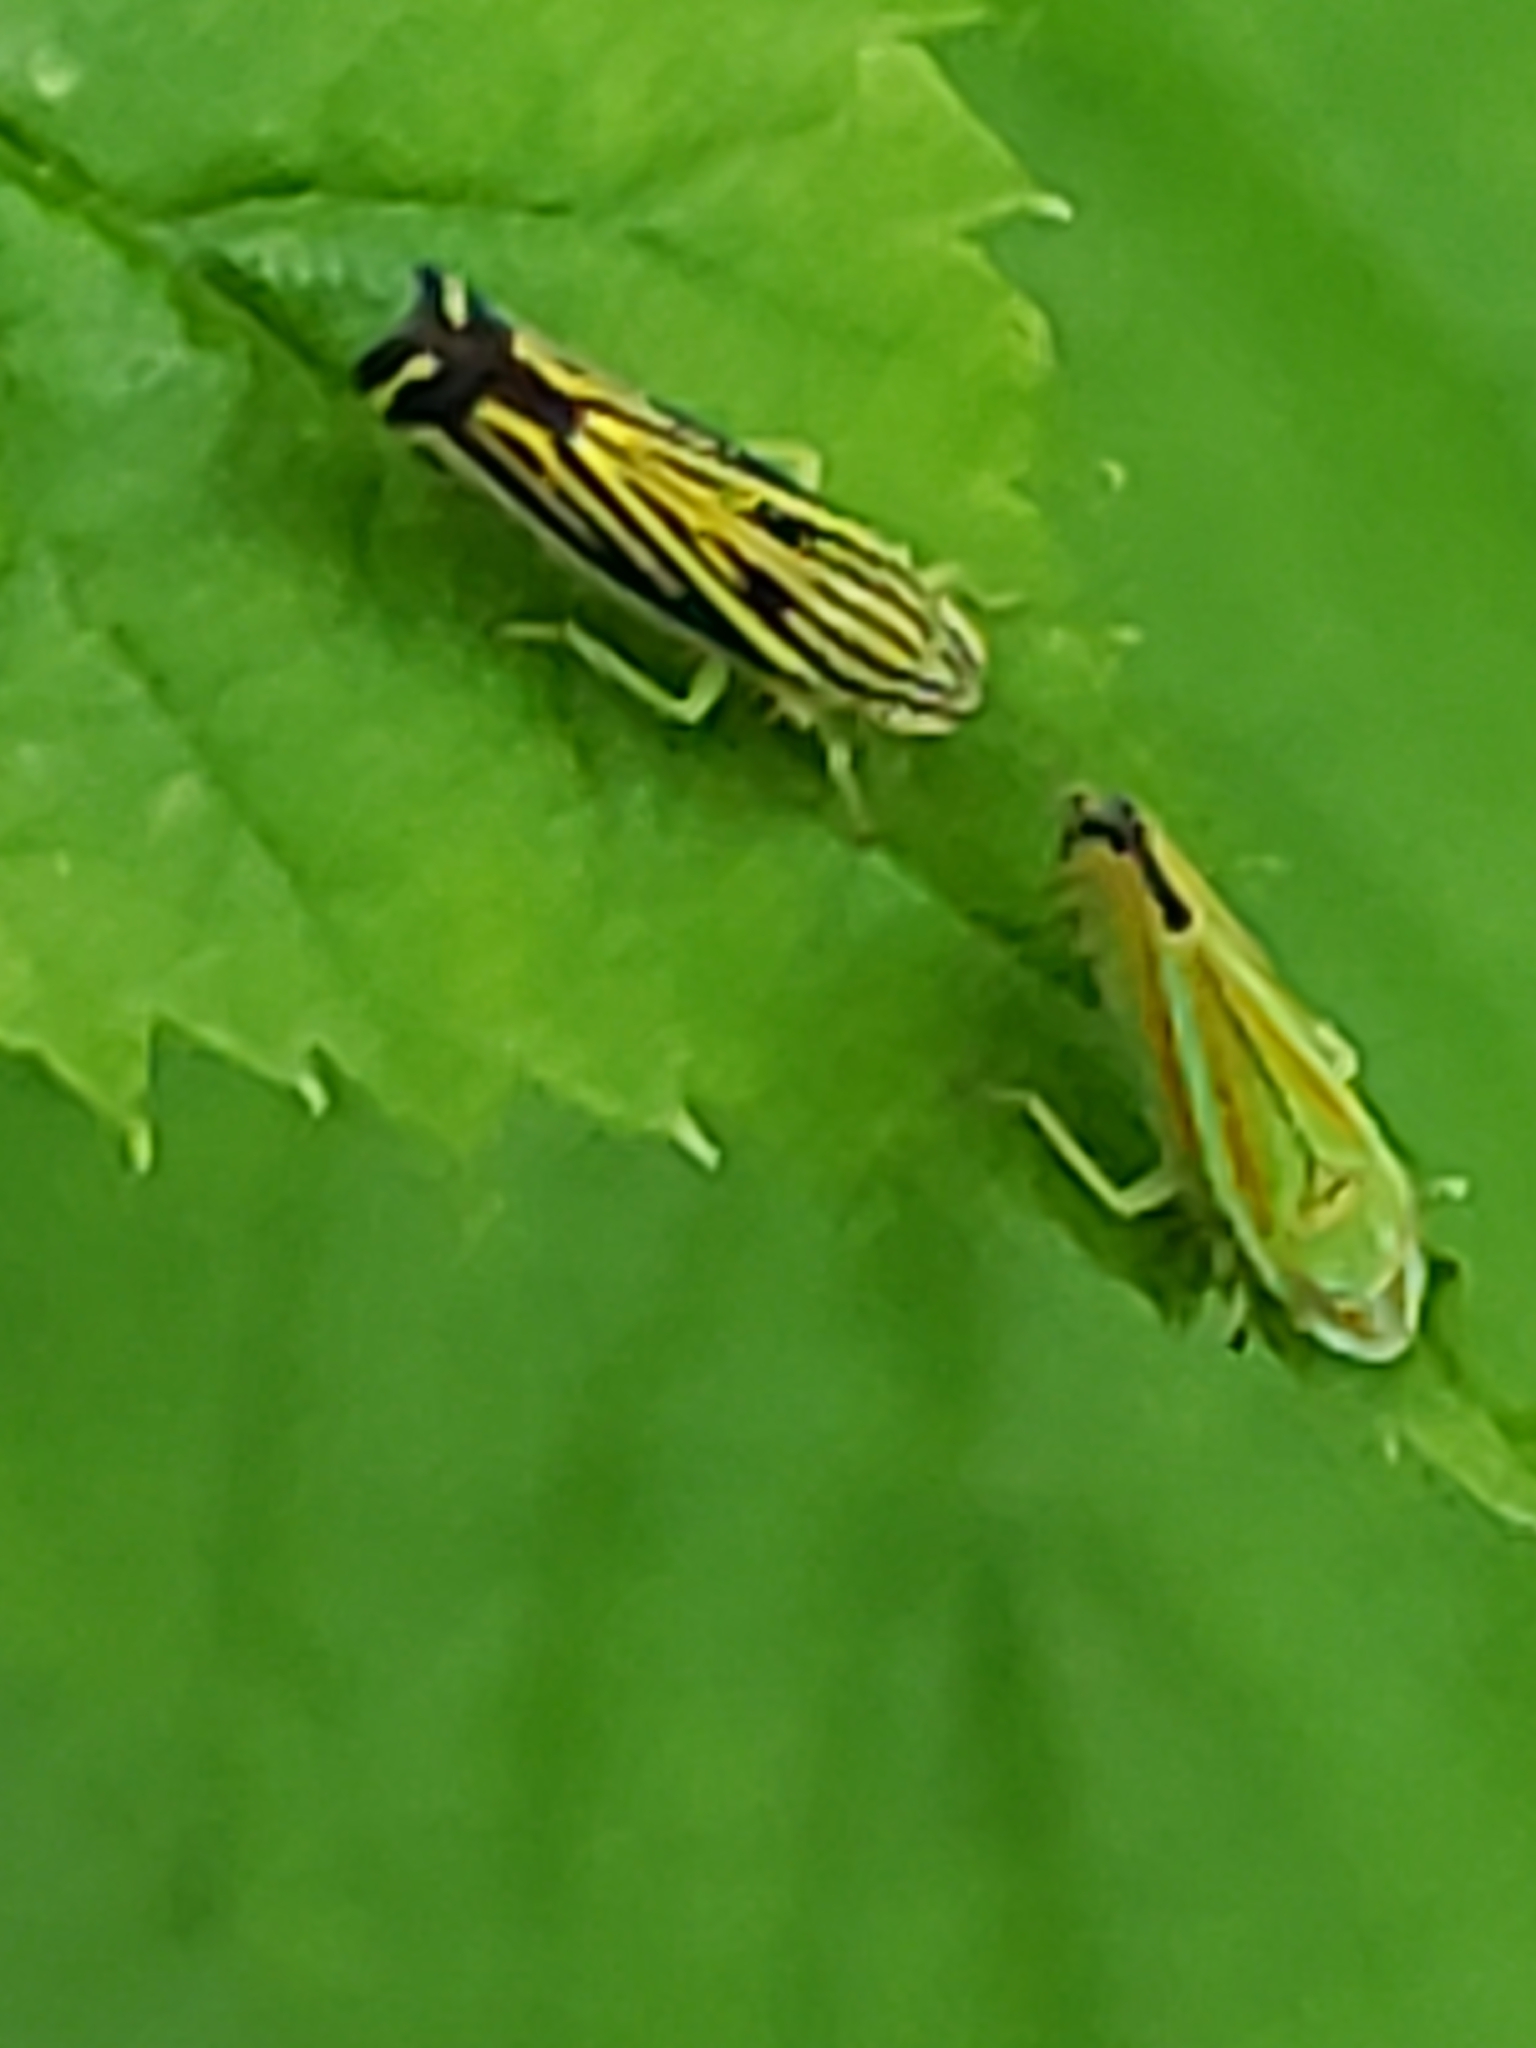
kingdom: Animalia
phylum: Arthropoda
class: Insecta
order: Hemiptera
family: Cicadellidae
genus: Graphocephala
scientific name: Graphocephala versuta
